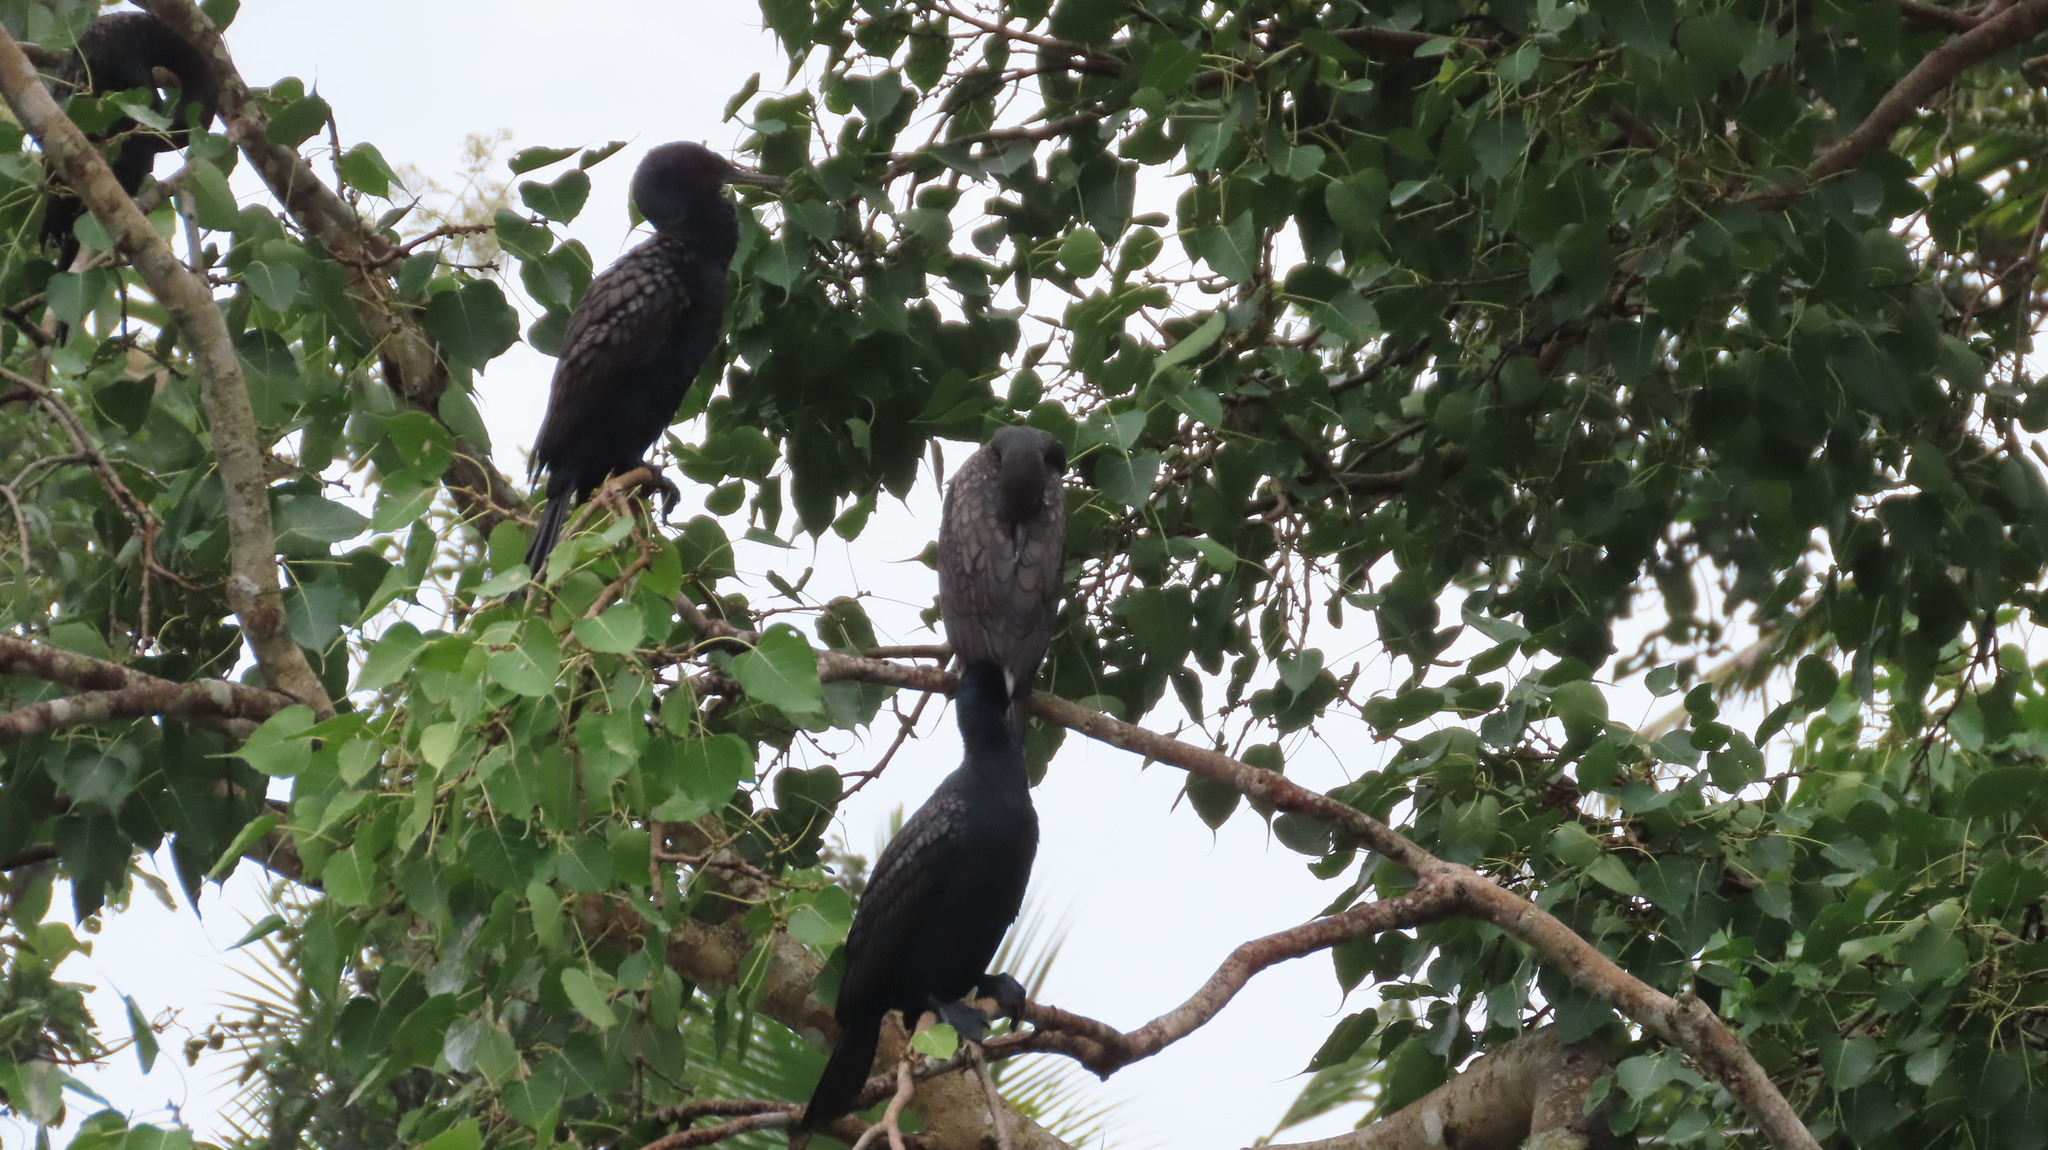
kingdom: Animalia
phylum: Chordata
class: Aves
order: Suliformes
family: Phalacrocoracidae
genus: Phalacrocorax
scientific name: Phalacrocorax fuscicollis
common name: Indian cormorant
